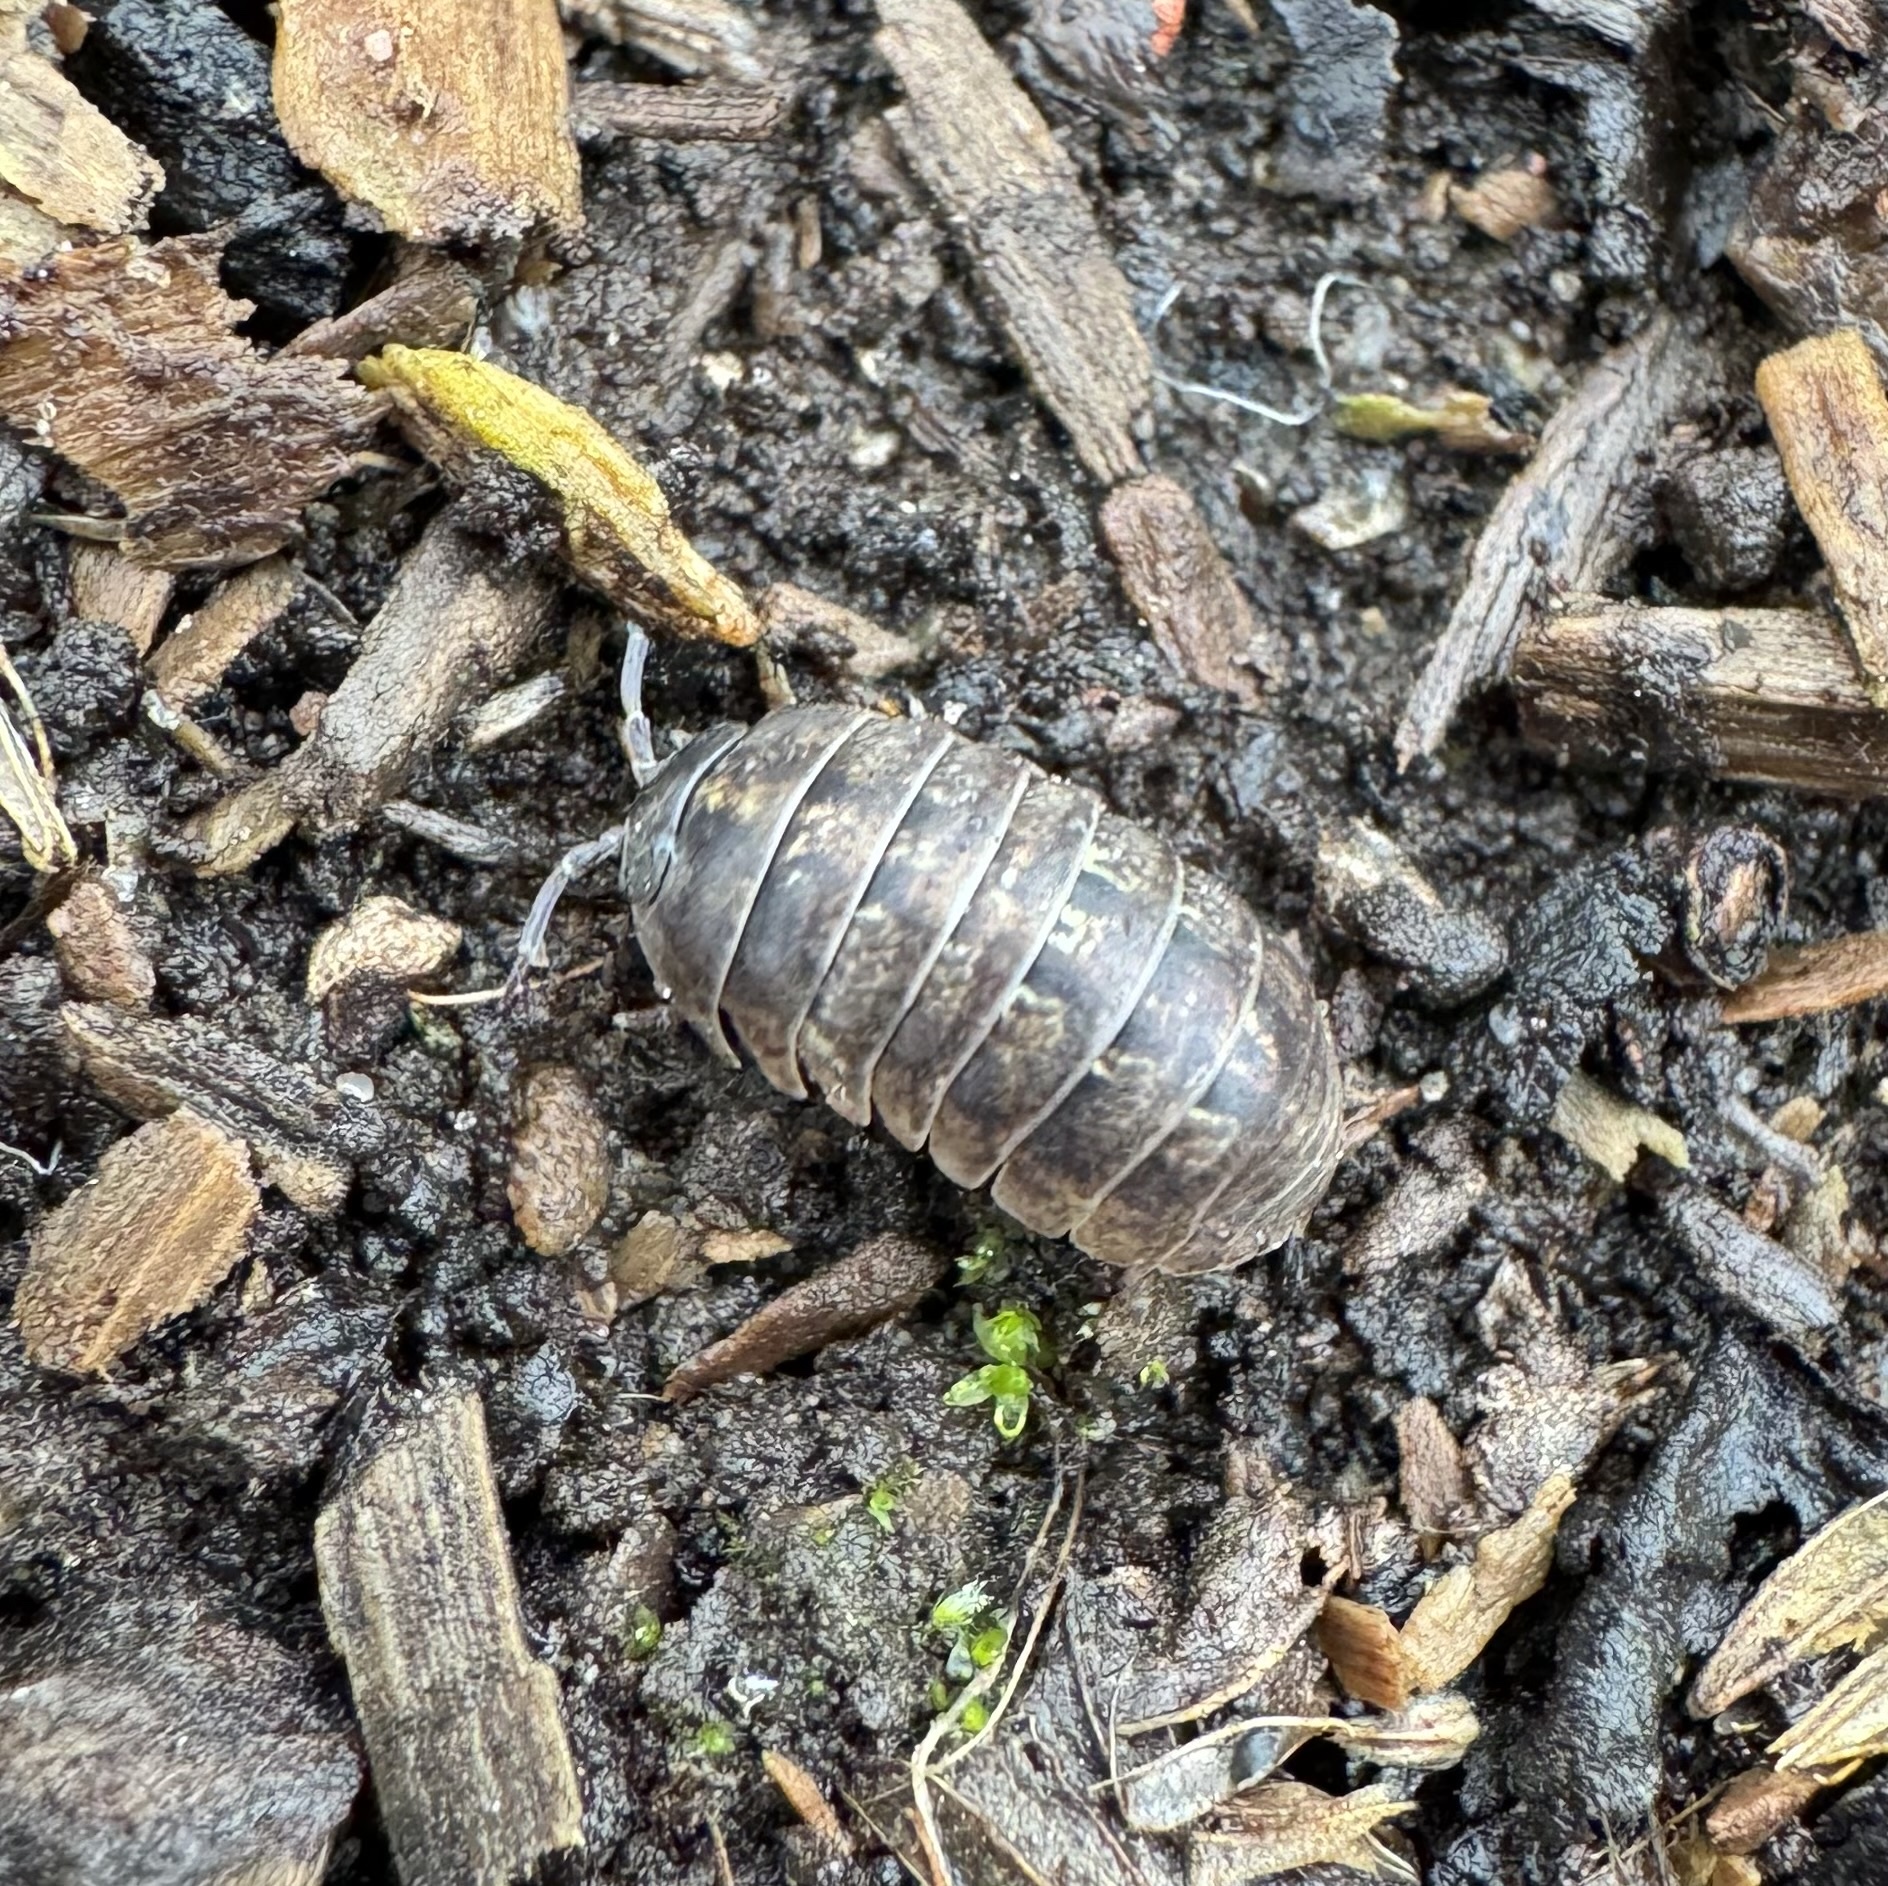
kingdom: Animalia
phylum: Arthropoda
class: Malacostraca
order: Isopoda
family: Armadillidiidae
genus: Armadillidium
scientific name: Armadillidium vulgare
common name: Common pill woodlouse
